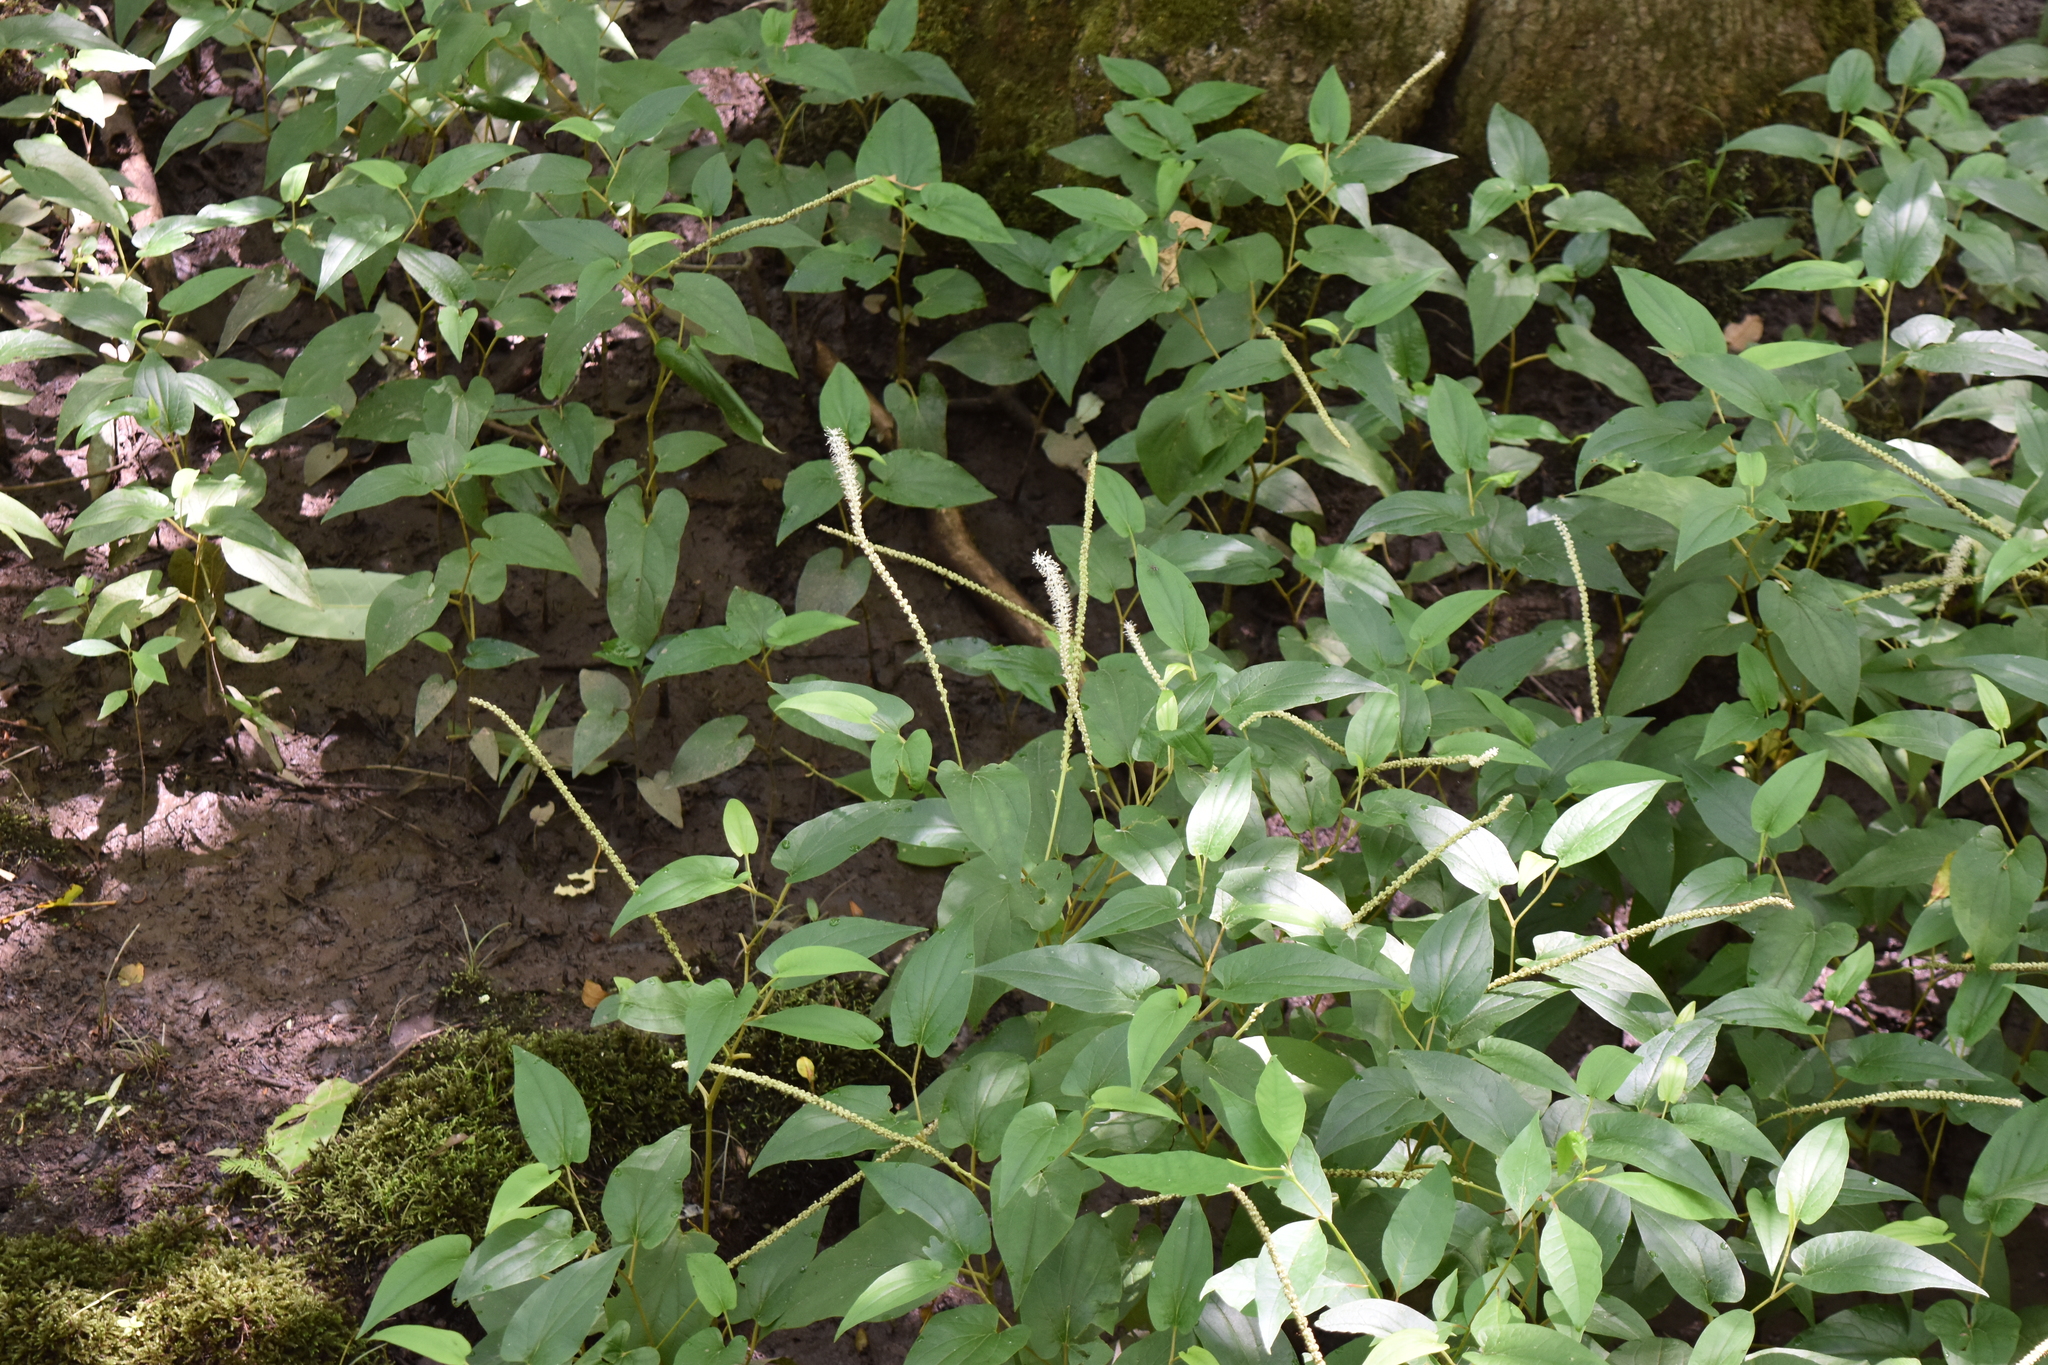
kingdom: Plantae
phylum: Tracheophyta
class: Magnoliopsida
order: Piperales
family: Saururaceae
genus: Saururus
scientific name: Saururus cernuus
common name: Lizard's-tail
